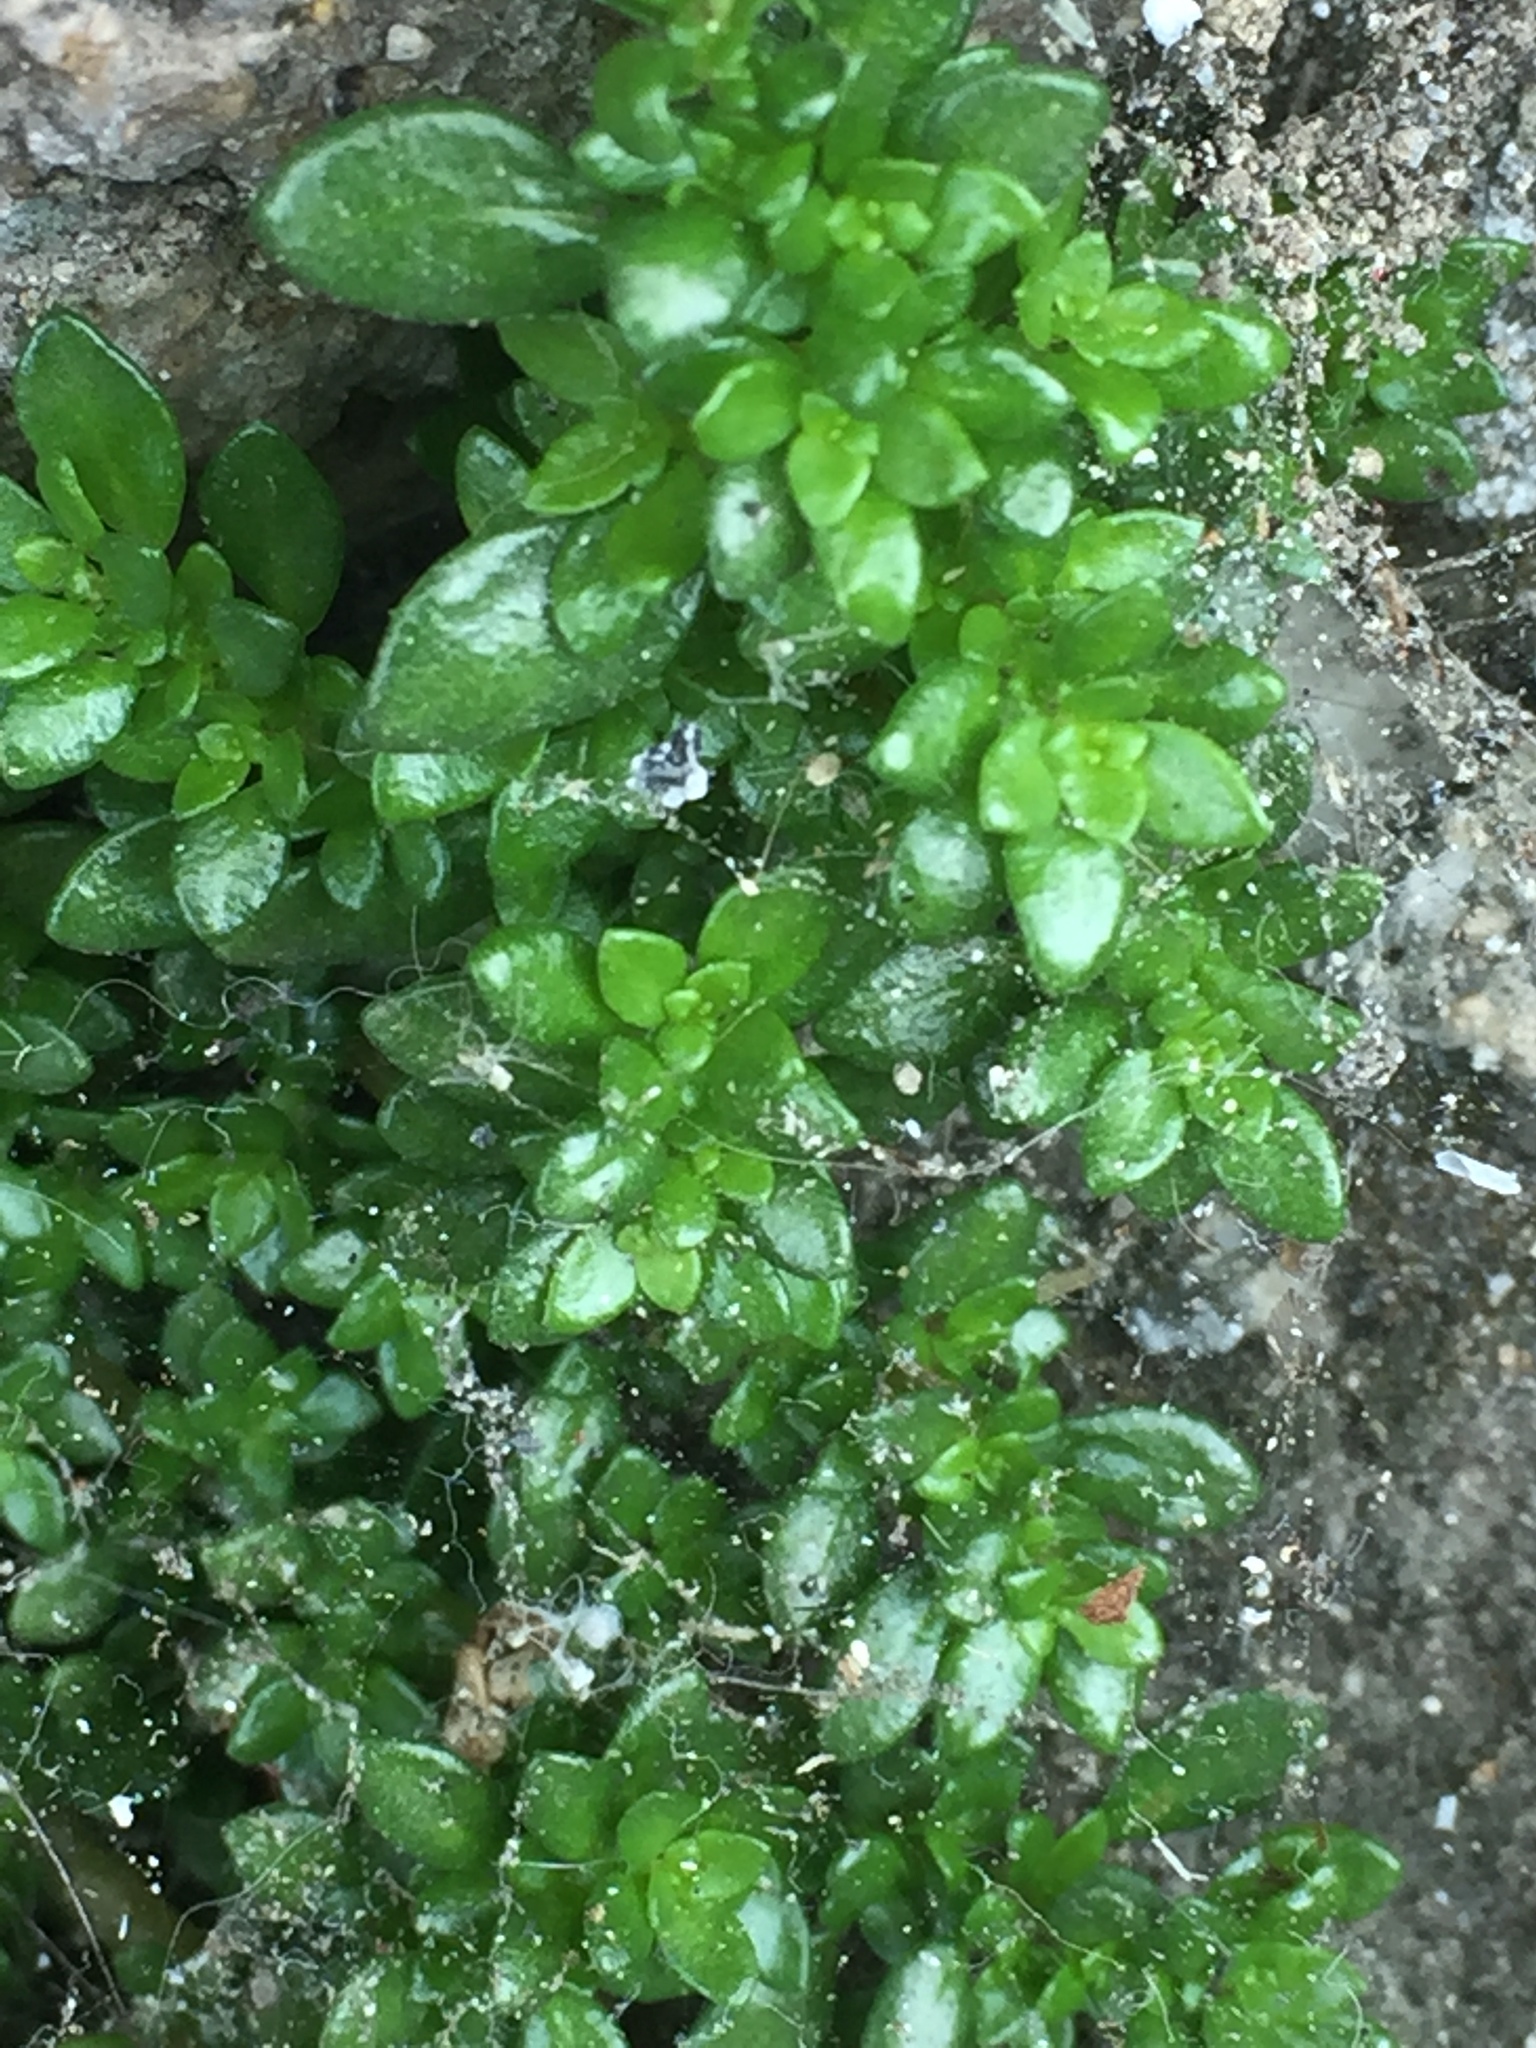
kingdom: Plantae
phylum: Tracheophyta
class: Magnoliopsida
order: Rosales
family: Urticaceae
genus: Pilea
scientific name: Pilea microphylla
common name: Artillery-plant
